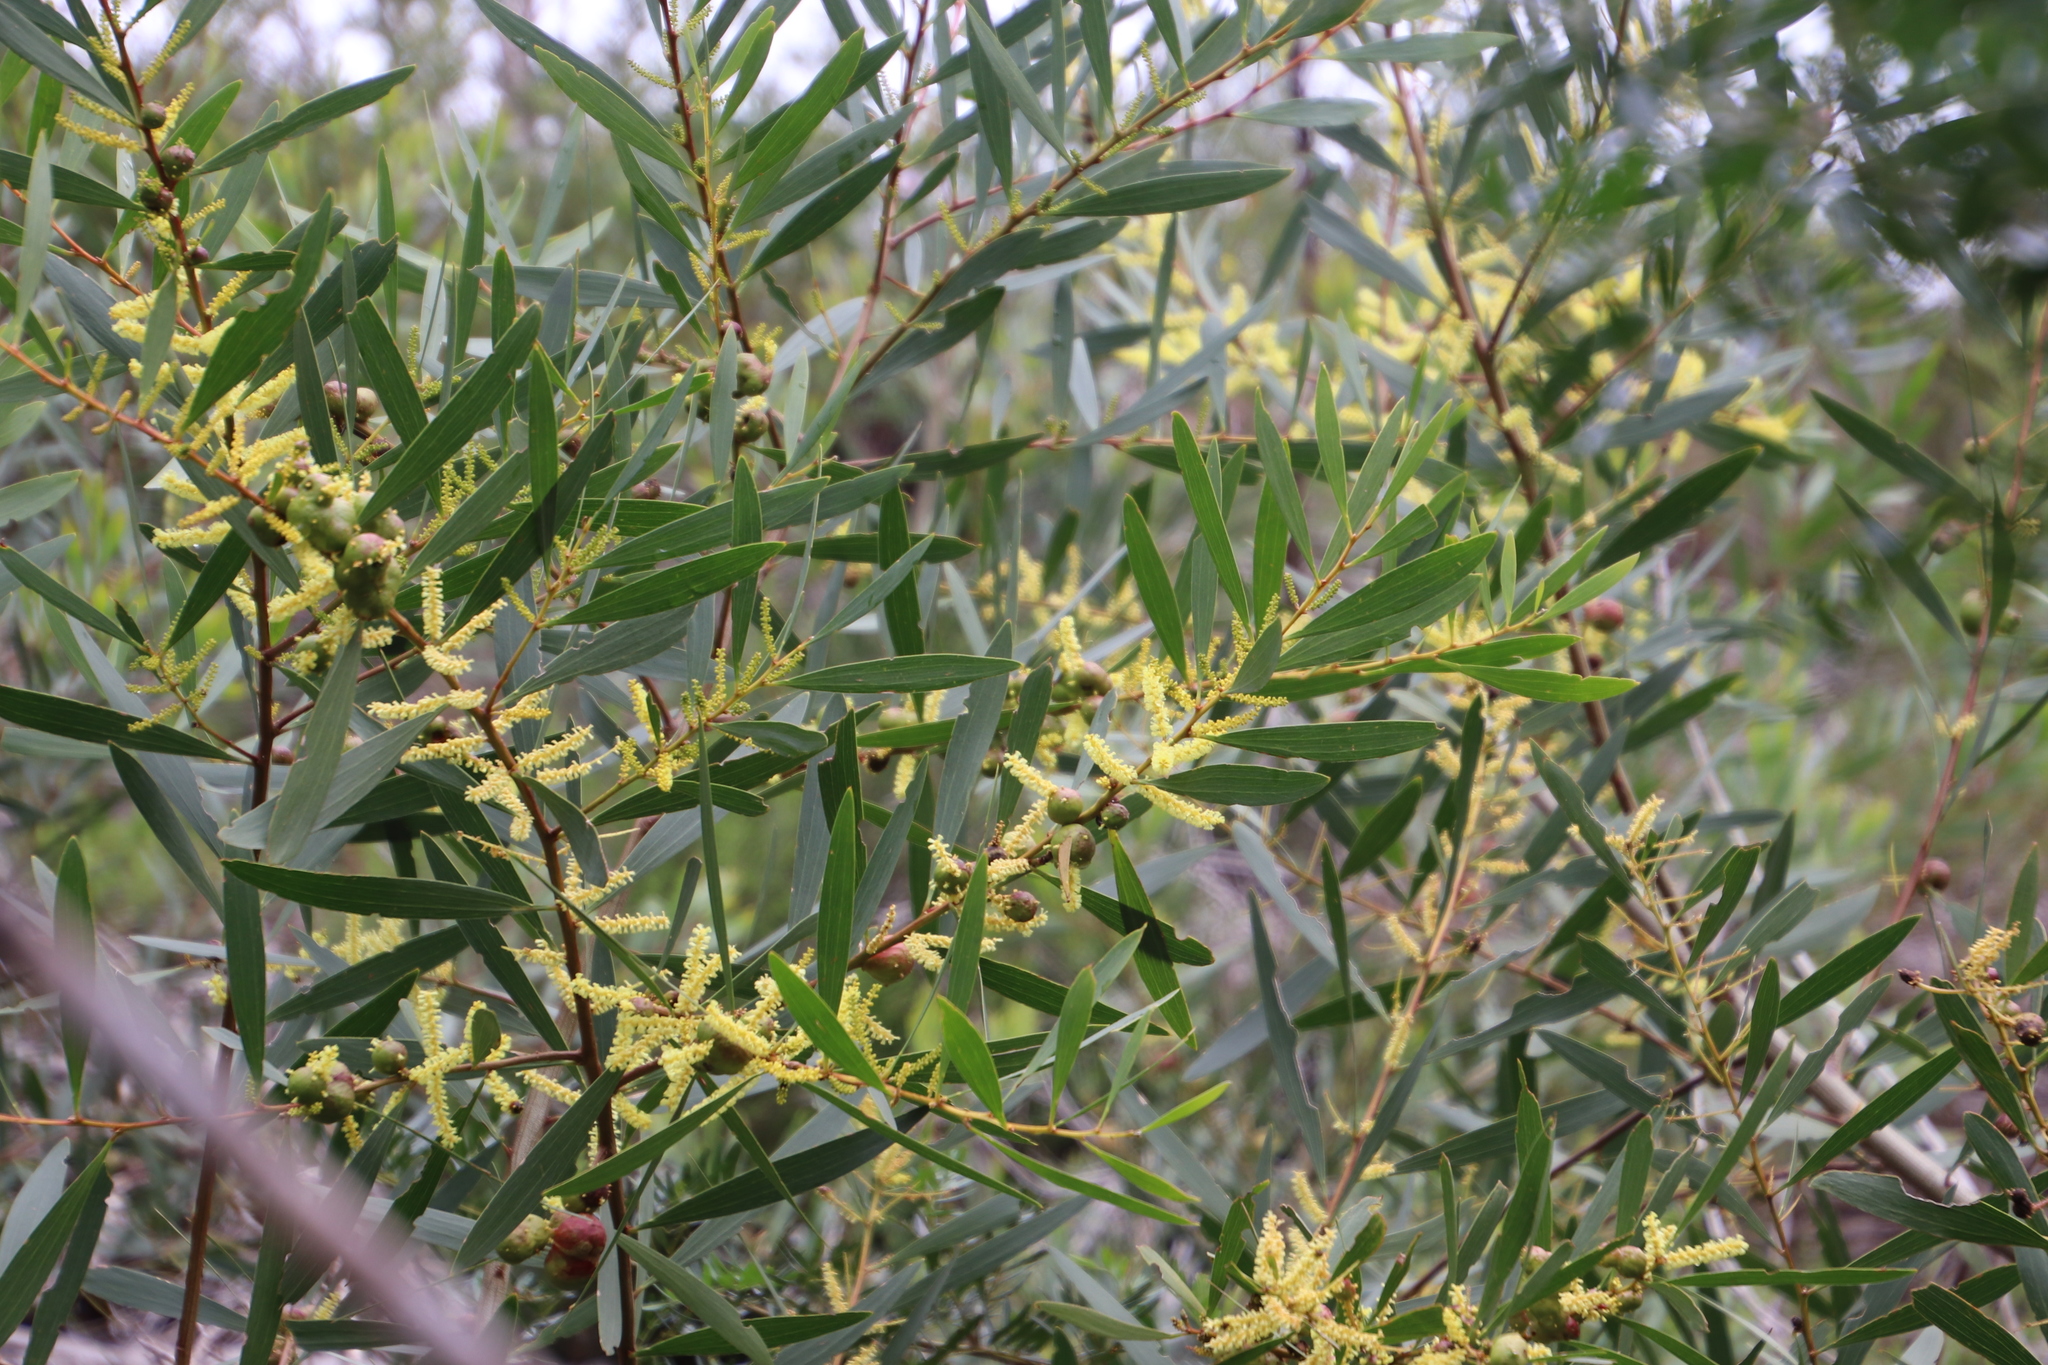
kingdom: Plantae
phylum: Tracheophyta
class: Magnoliopsida
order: Fabales
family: Fabaceae
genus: Acacia
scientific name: Acacia longifolia
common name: Sydney golden wattle
